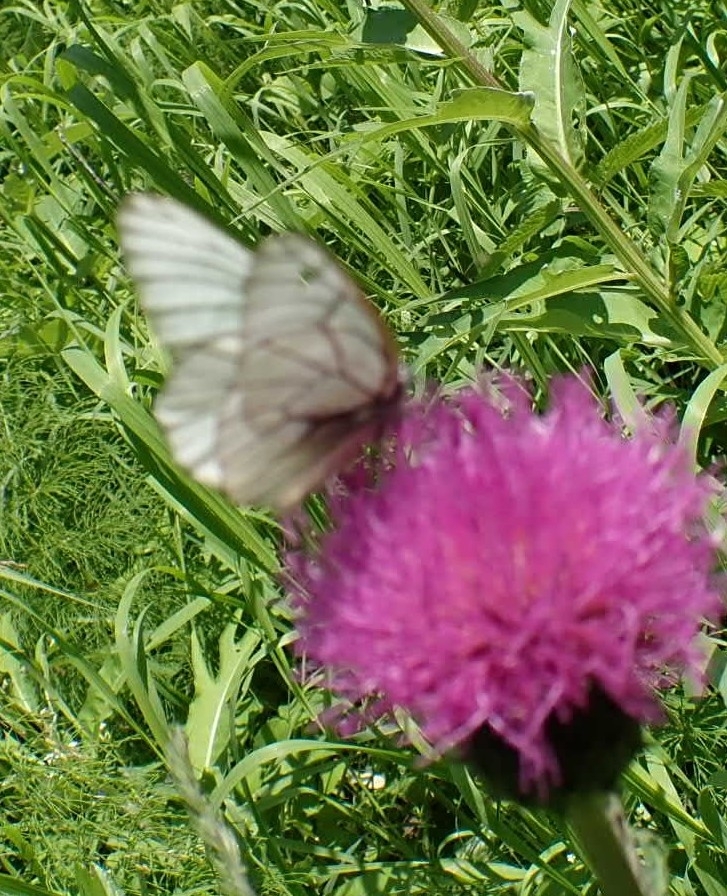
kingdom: Animalia
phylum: Arthropoda
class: Insecta
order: Lepidoptera
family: Pieridae
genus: Aporia
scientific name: Aporia crataegi
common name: Black-veined white
